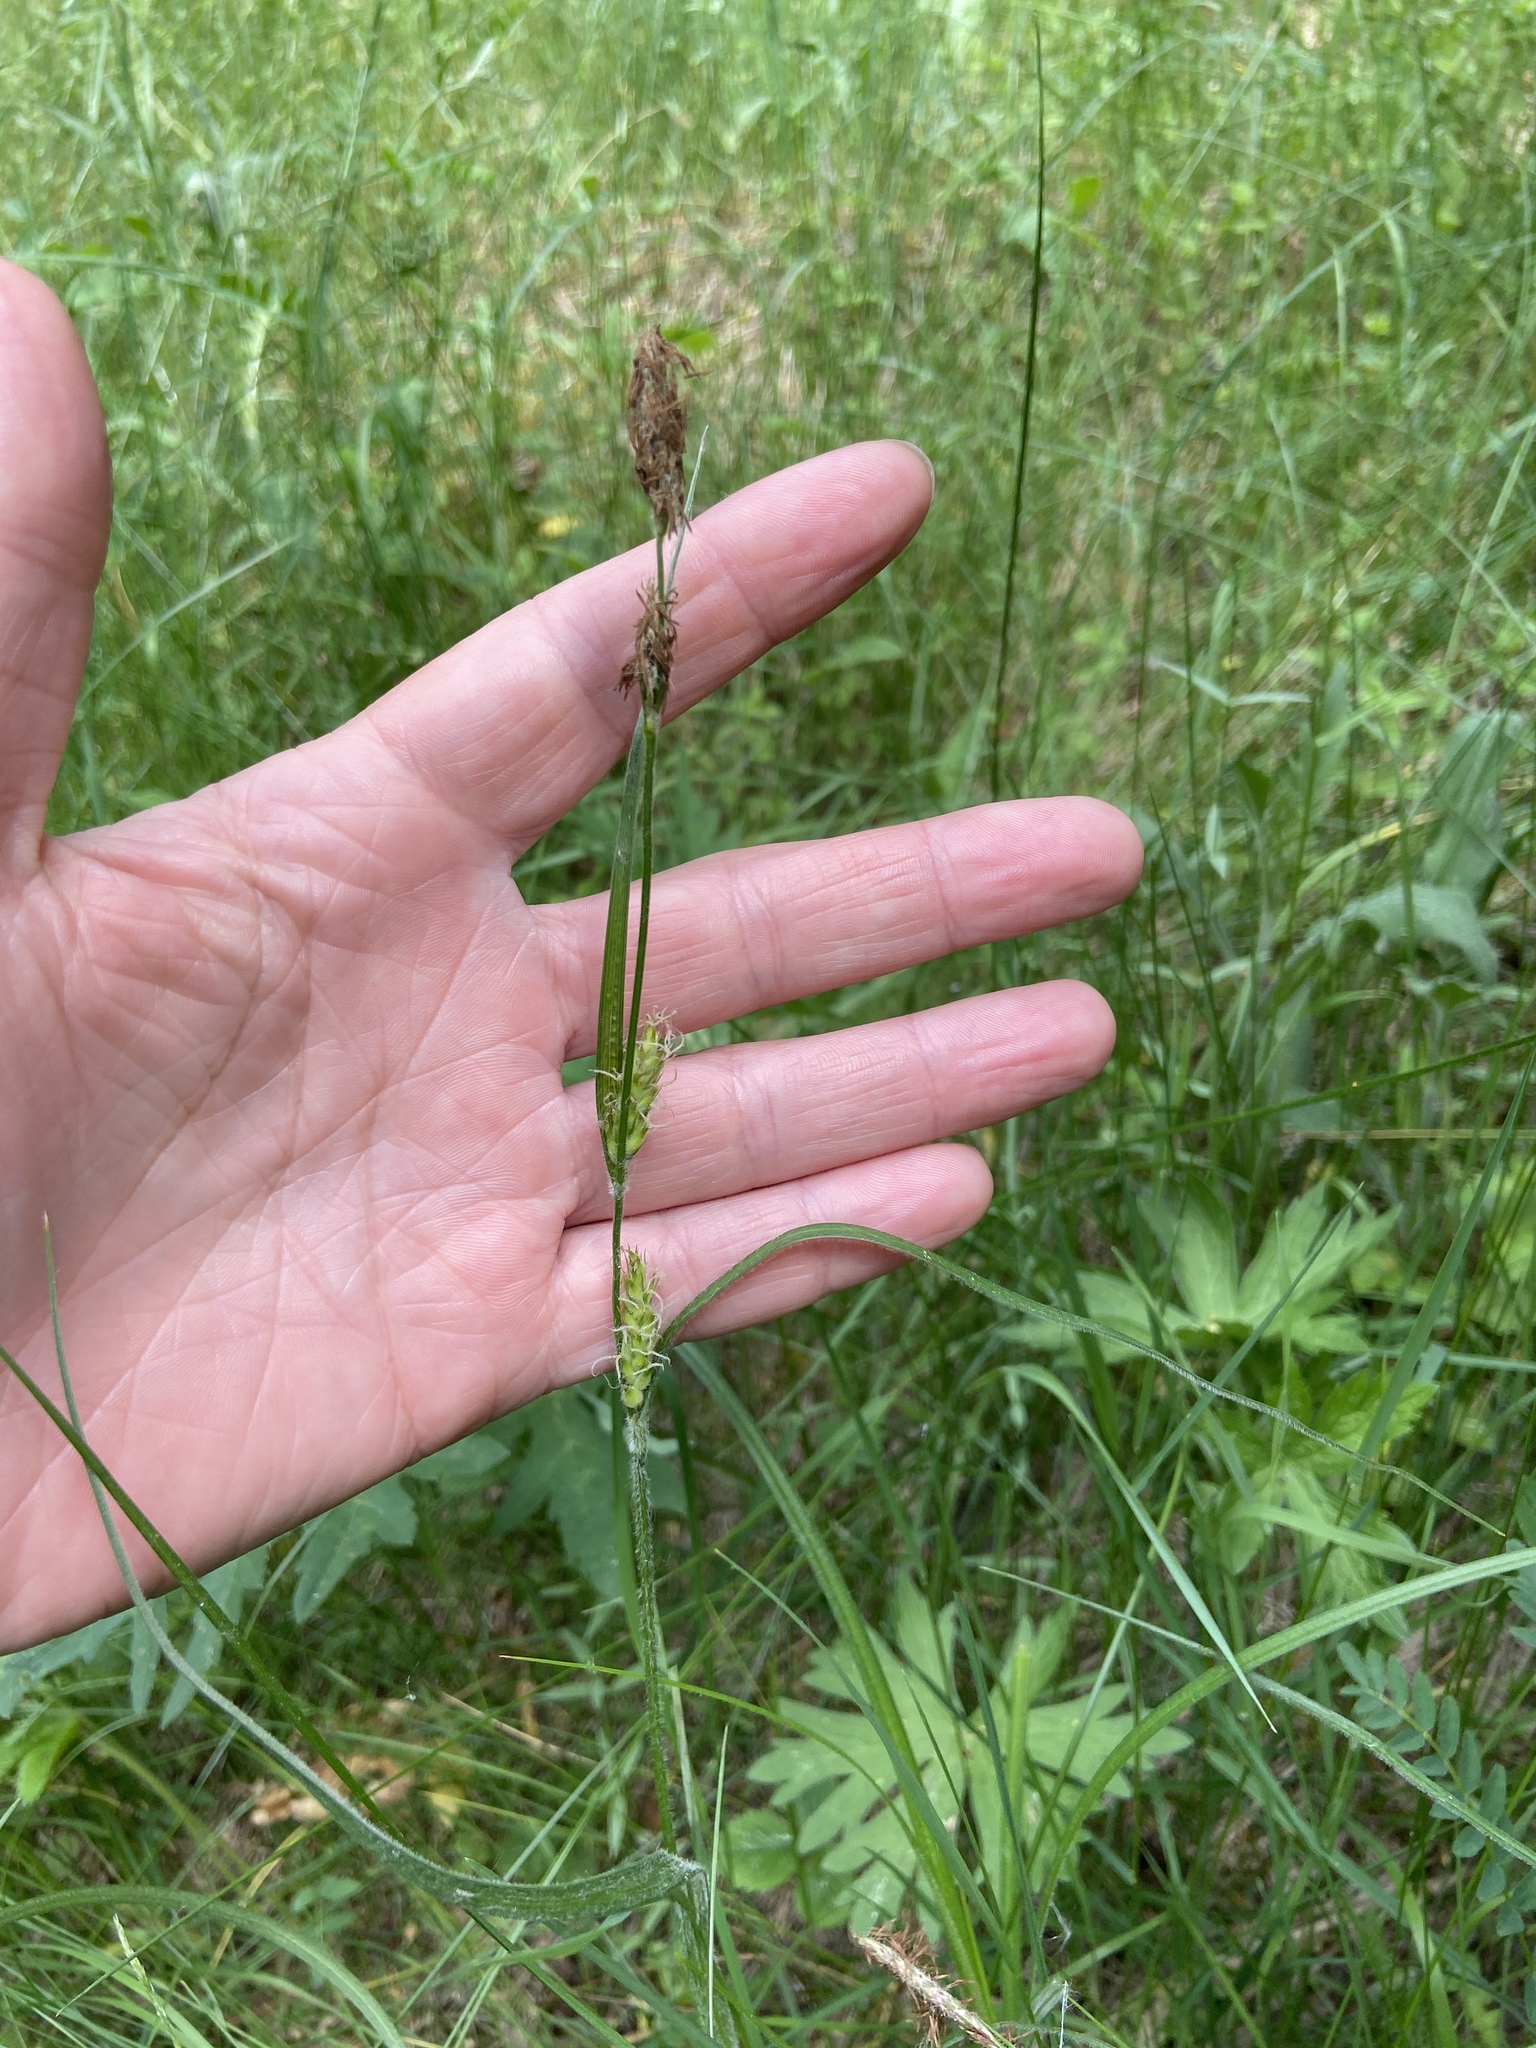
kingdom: Plantae
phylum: Tracheophyta
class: Liliopsida
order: Poales
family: Cyperaceae
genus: Carex
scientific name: Carex hirta
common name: Hairy sedge
